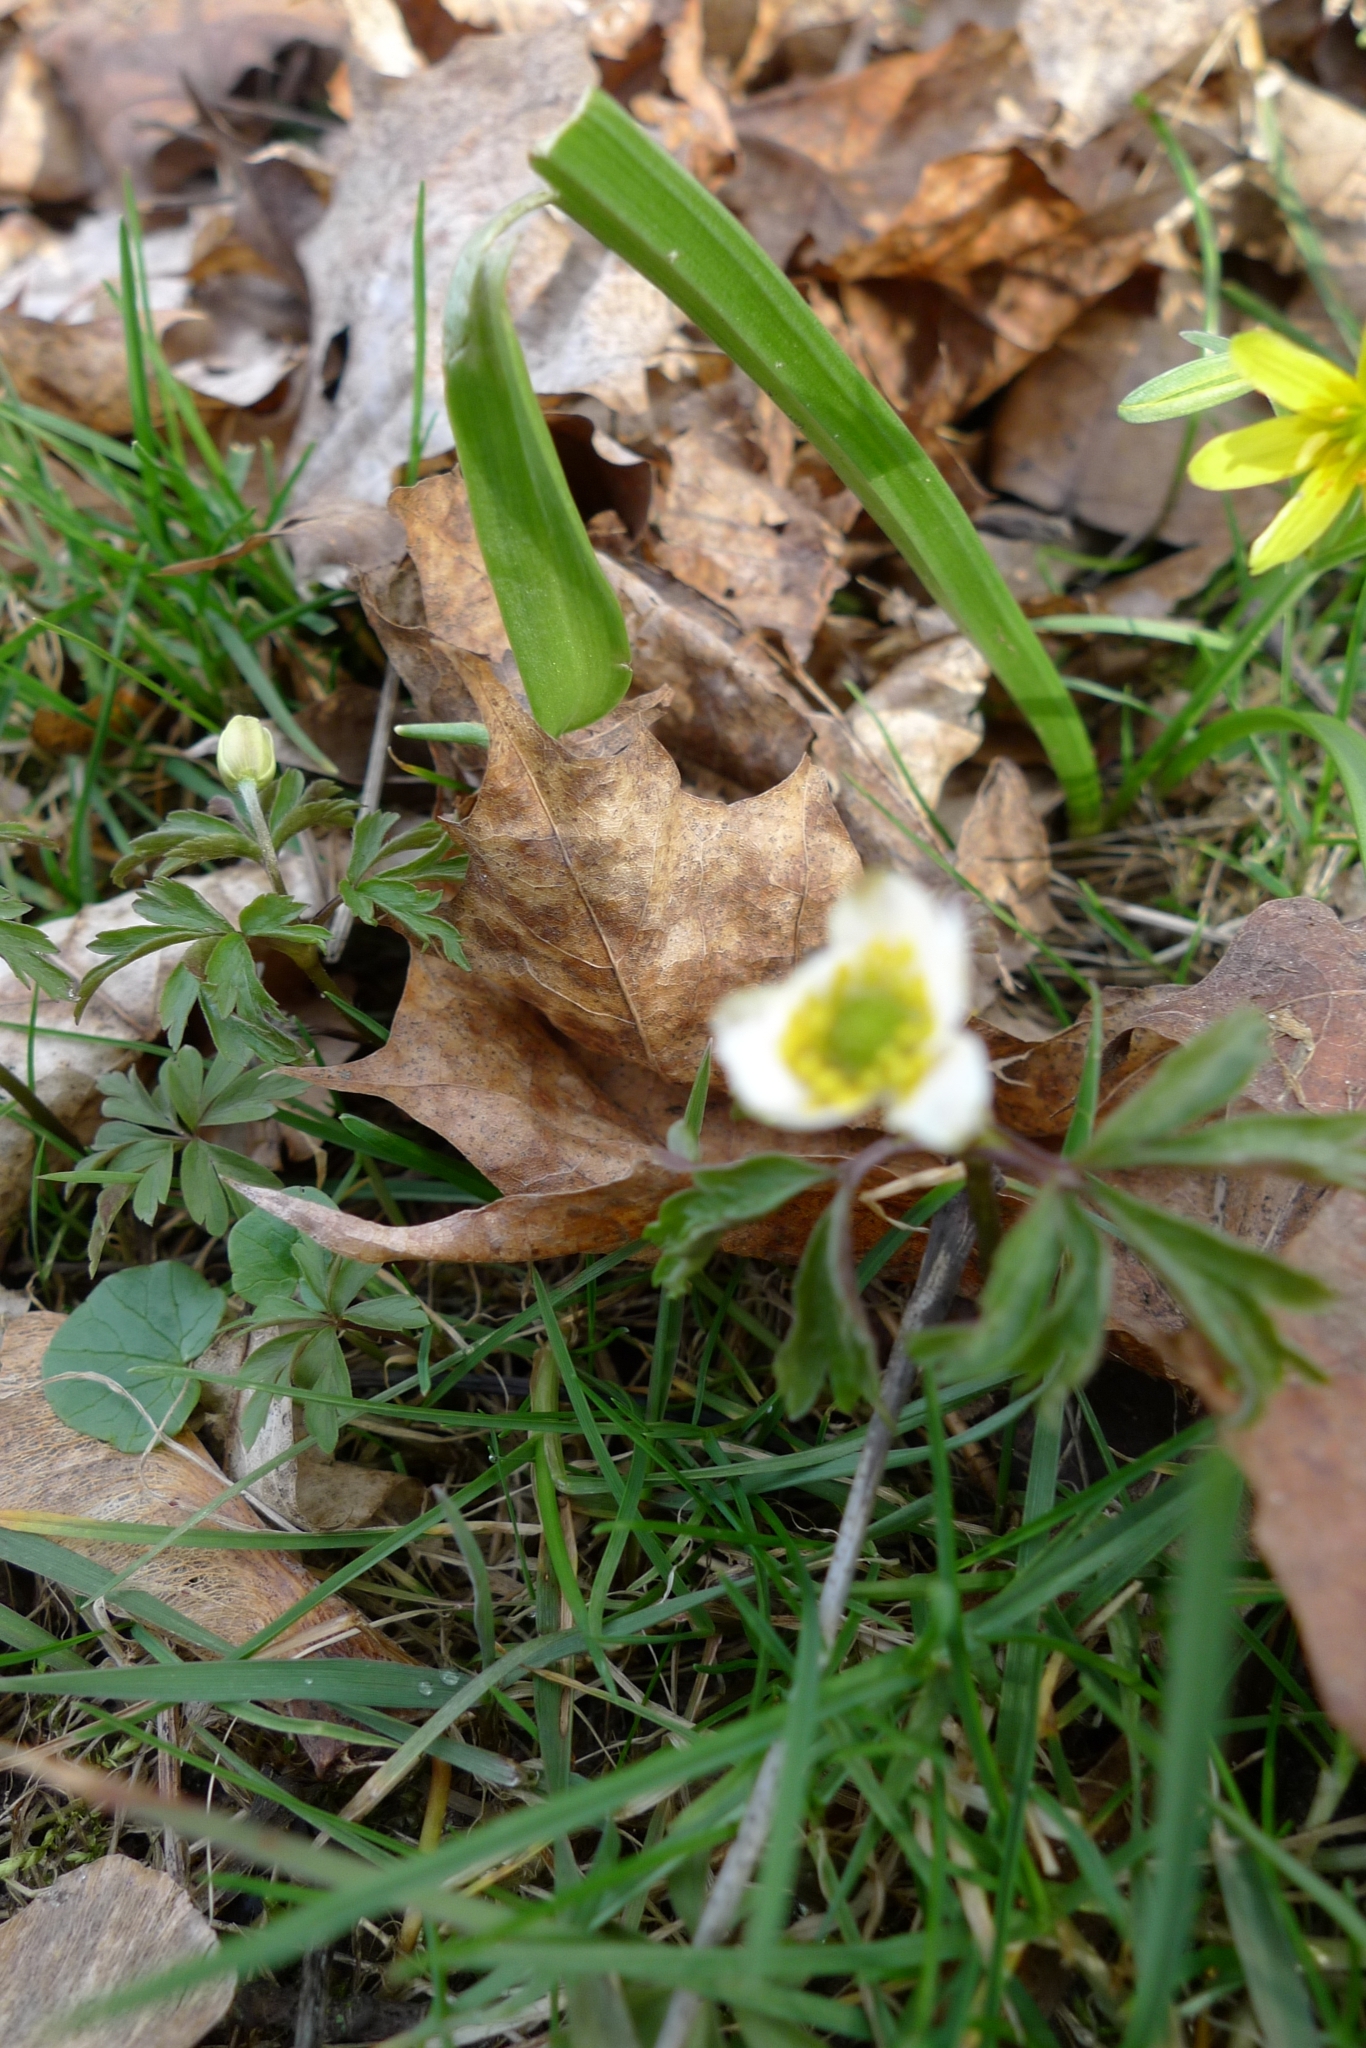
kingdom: Plantae
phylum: Tracheophyta
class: Magnoliopsida
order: Ranunculales
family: Ranunculaceae
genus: Anemone
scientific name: Anemone nemorosa
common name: Wood anemone
